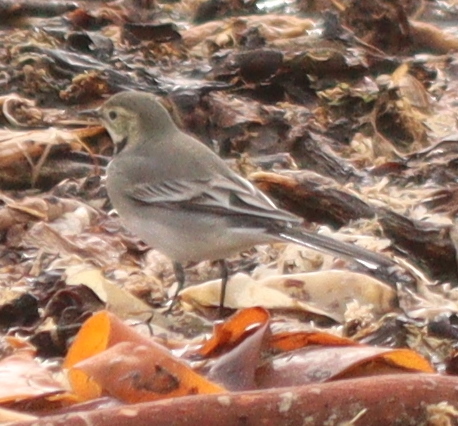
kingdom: Animalia
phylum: Chordata
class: Aves
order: Passeriformes
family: Motacillidae
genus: Motacilla
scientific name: Motacilla alba
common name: White wagtail
